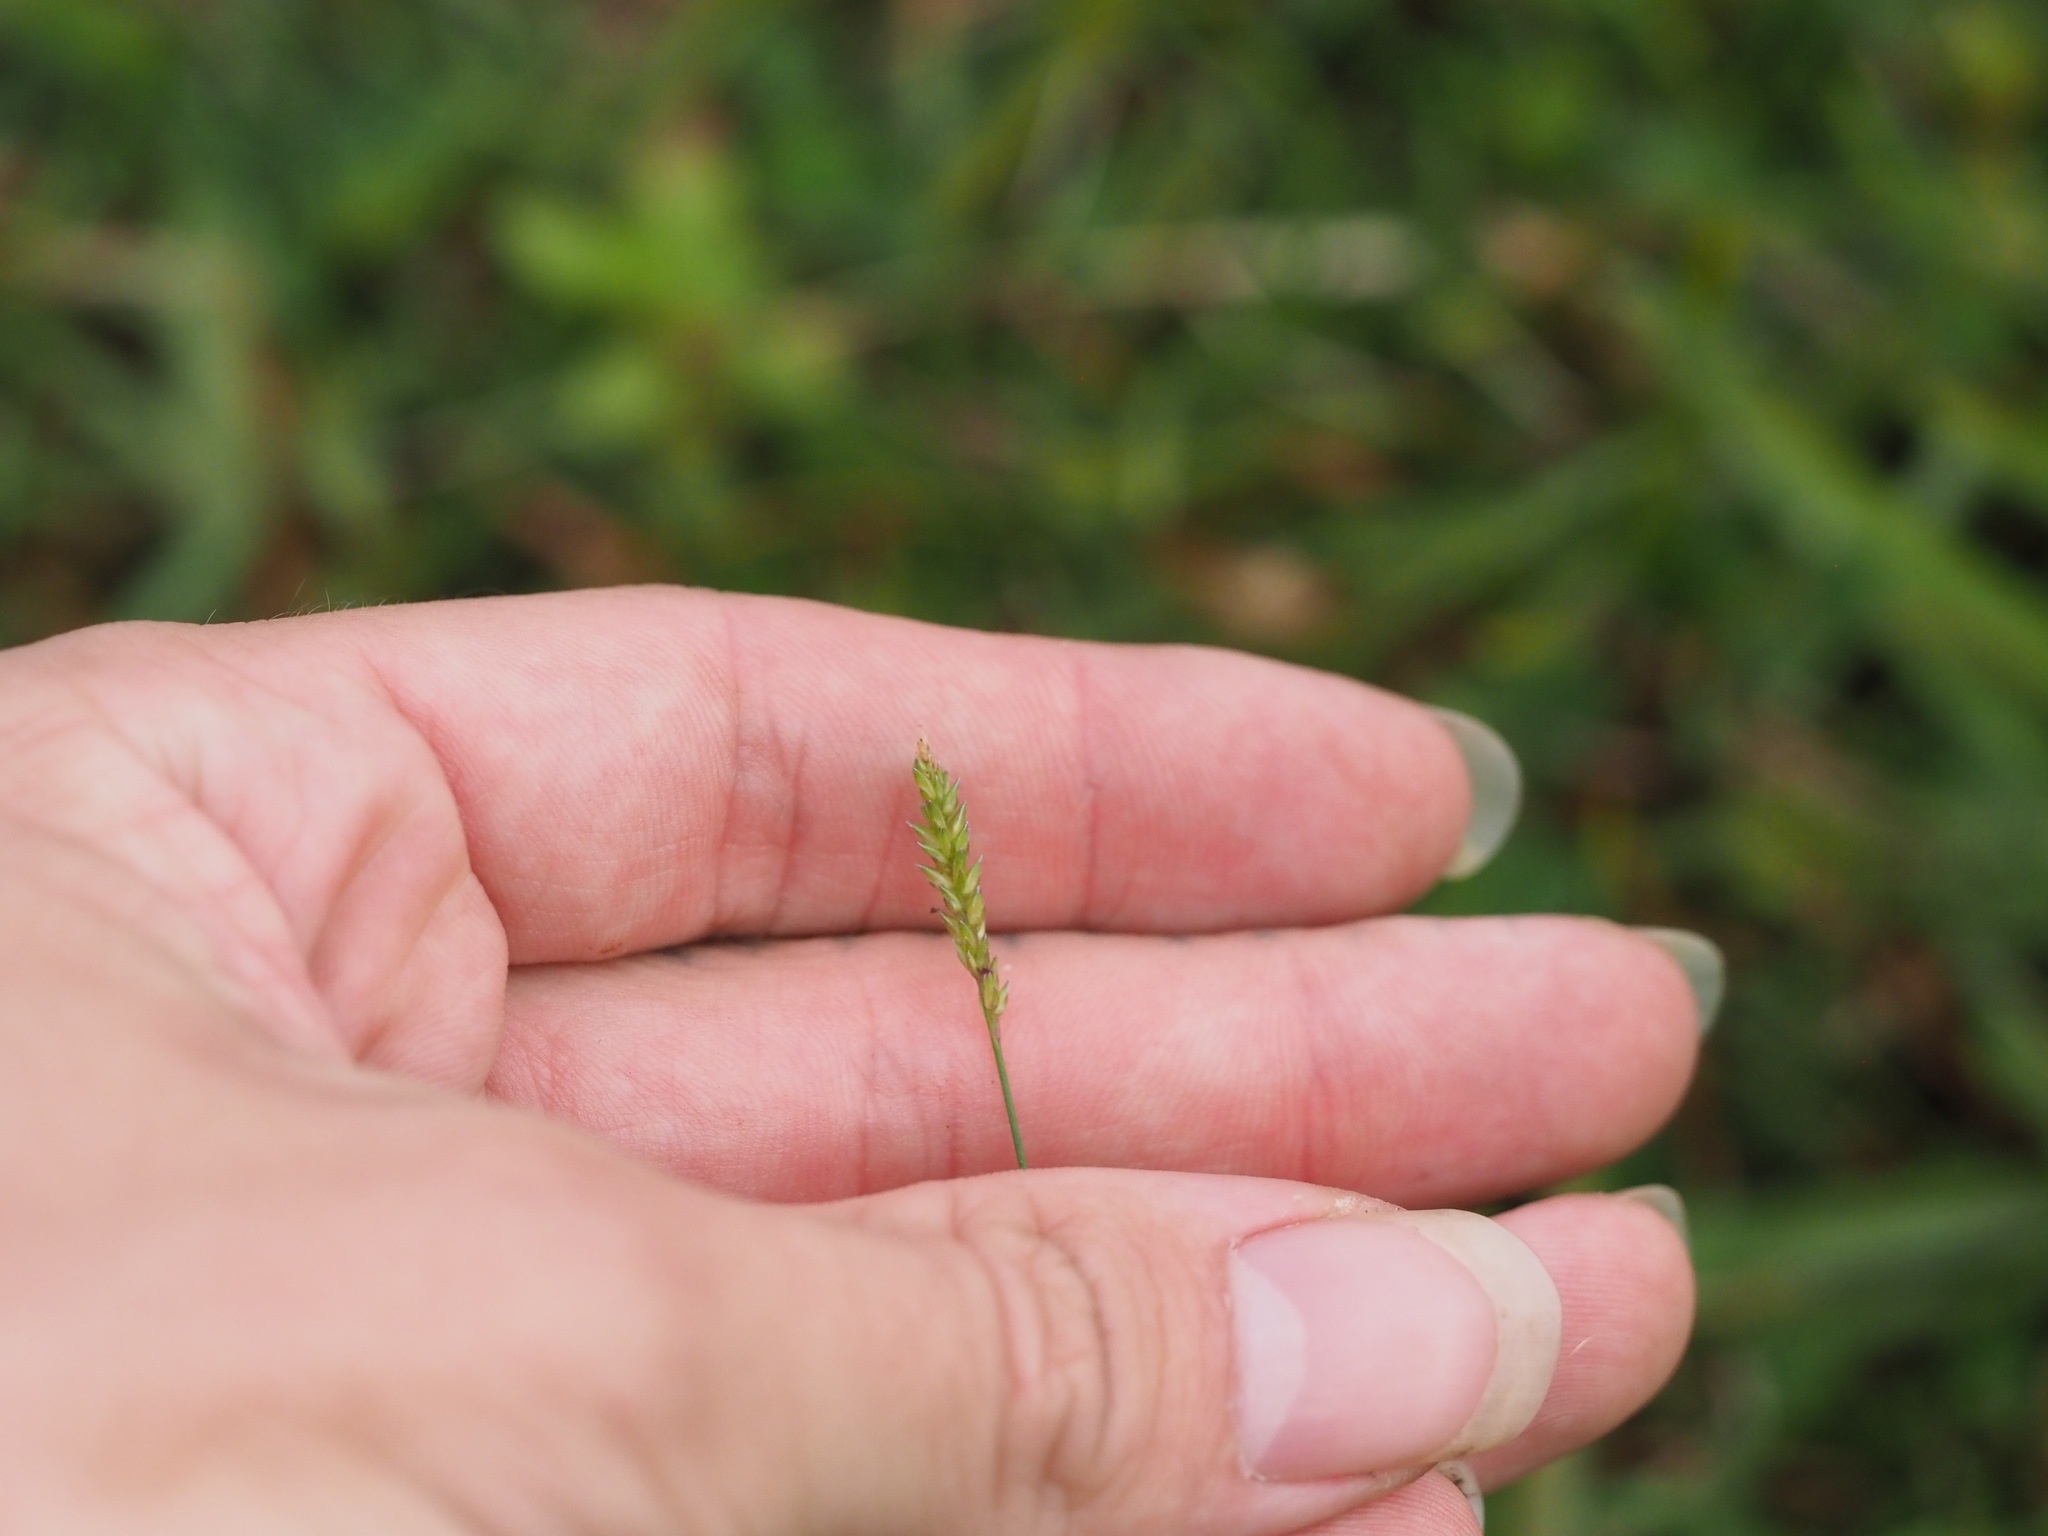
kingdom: Plantae
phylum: Tracheophyta
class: Liliopsida
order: Poales
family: Poaceae
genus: Sacciolepis
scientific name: Sacciolepis indica
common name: Glenwoodgrass
